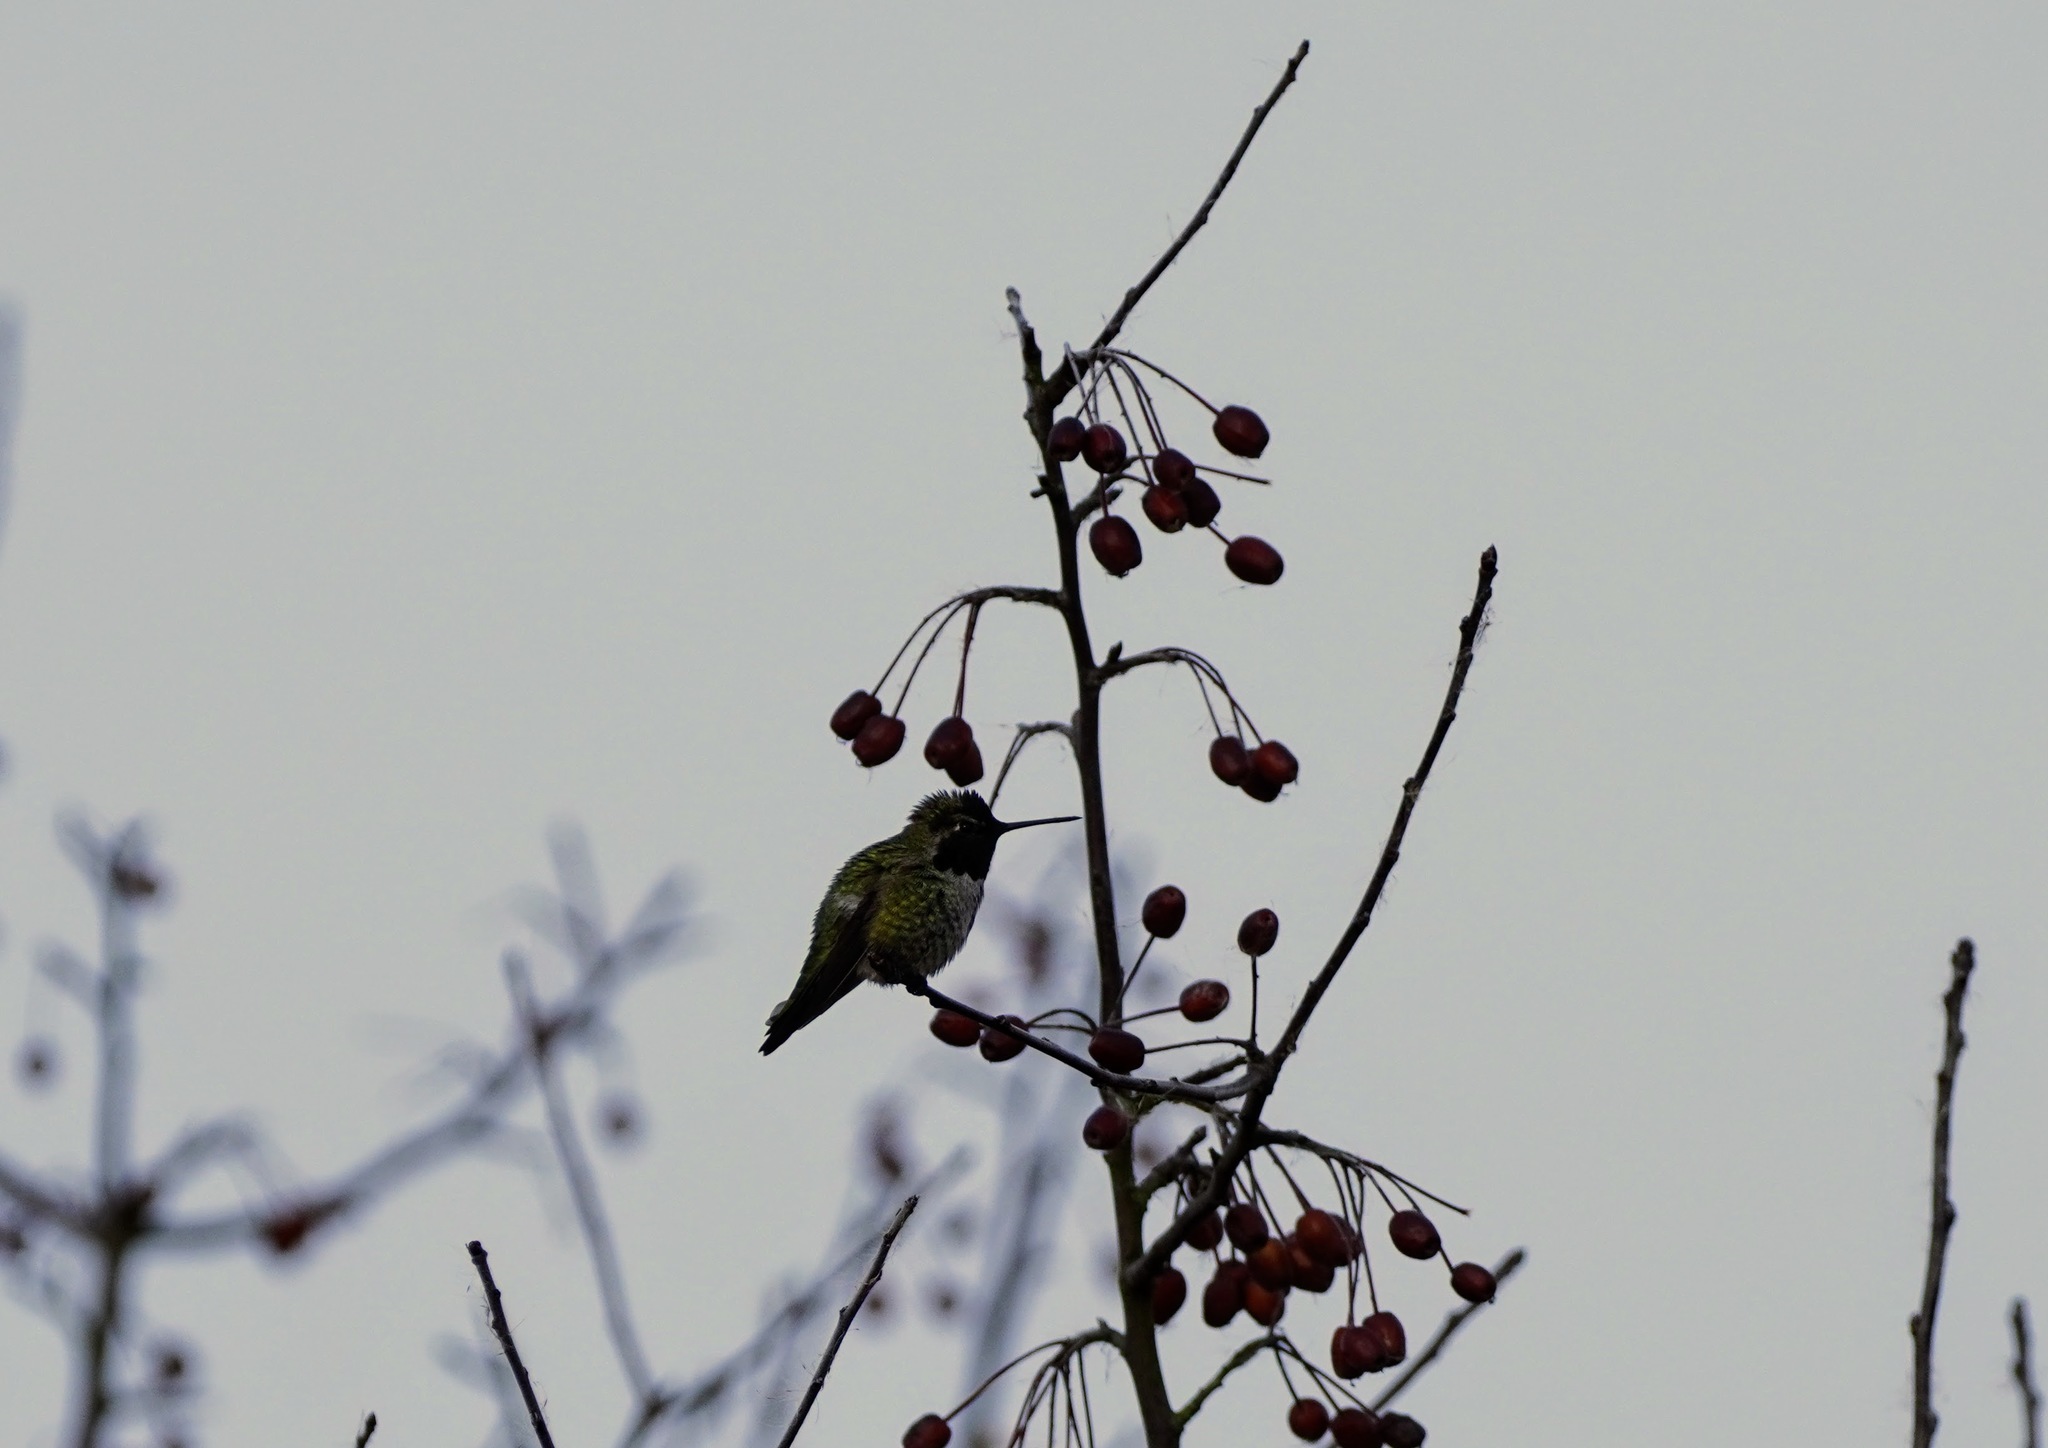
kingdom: Animalia
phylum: Chordata
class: Aves
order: Apodiformes
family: Trochilidae
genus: Calypte
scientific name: Calypte anna
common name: Anna's hummingbird
